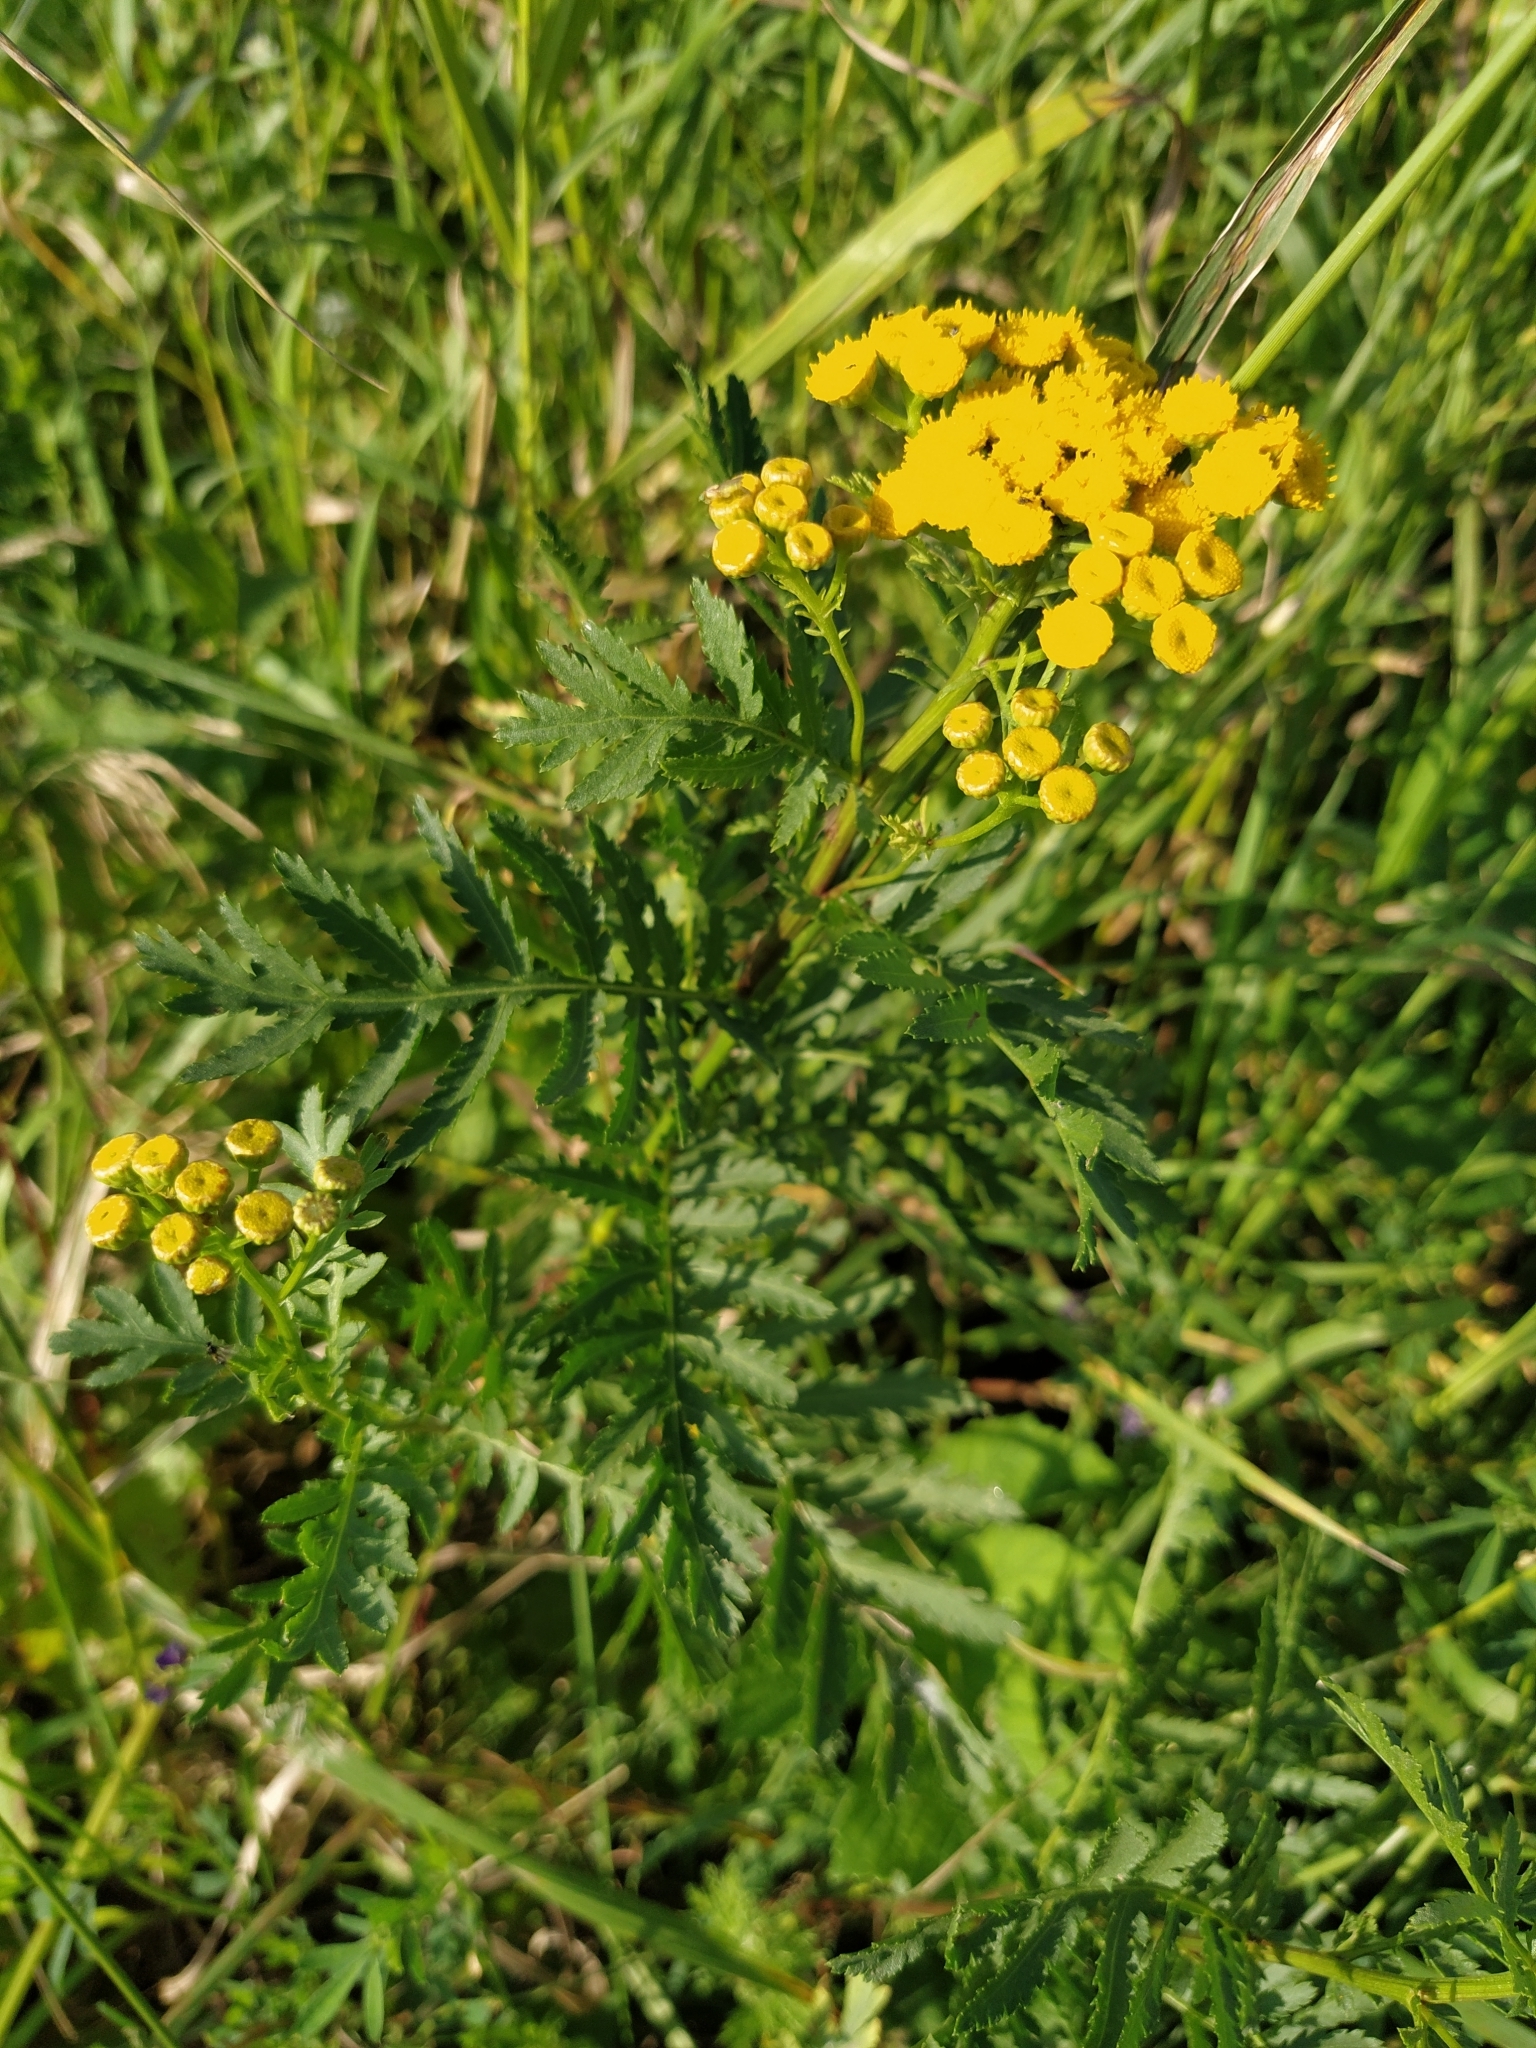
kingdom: Plantae
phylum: Tracheophyta
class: Magnoliopsida
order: Asterales
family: Asteraceae
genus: Tanacetum
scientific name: Tanacetum vulgare
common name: Common tansy
